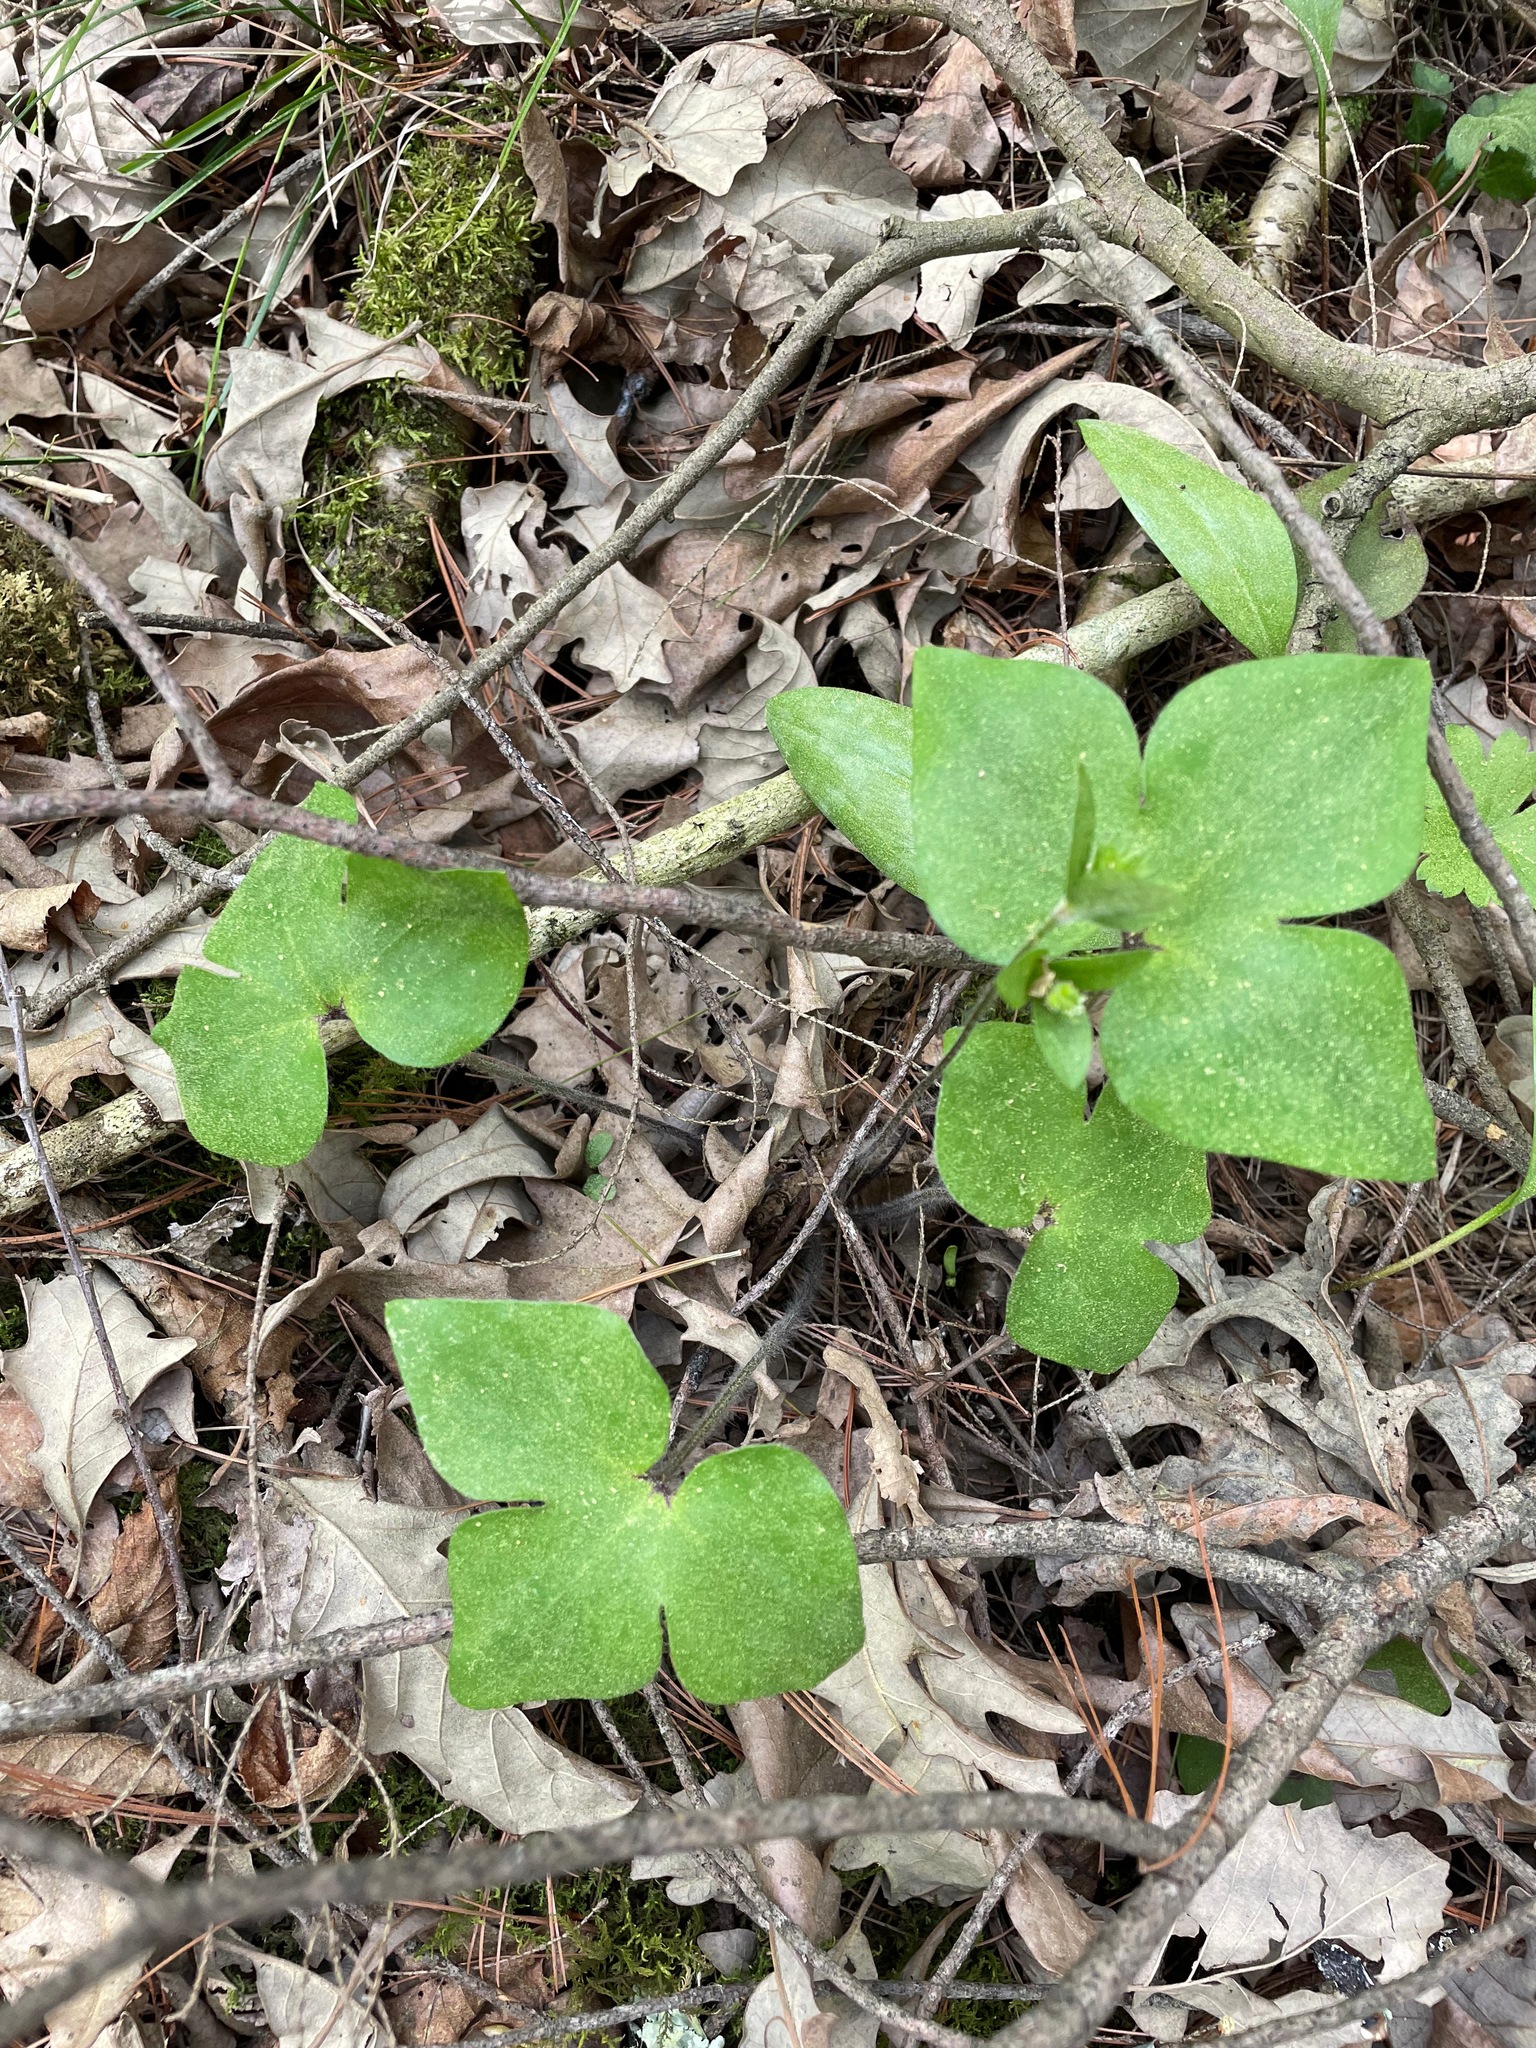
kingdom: Plantae
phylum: Tracheophyta
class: Magnoliopsida
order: Ranunculales
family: Ranunculaceae
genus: Hepatica
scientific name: Hepatica acutiloba
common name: Sharp-lobed hepatica
